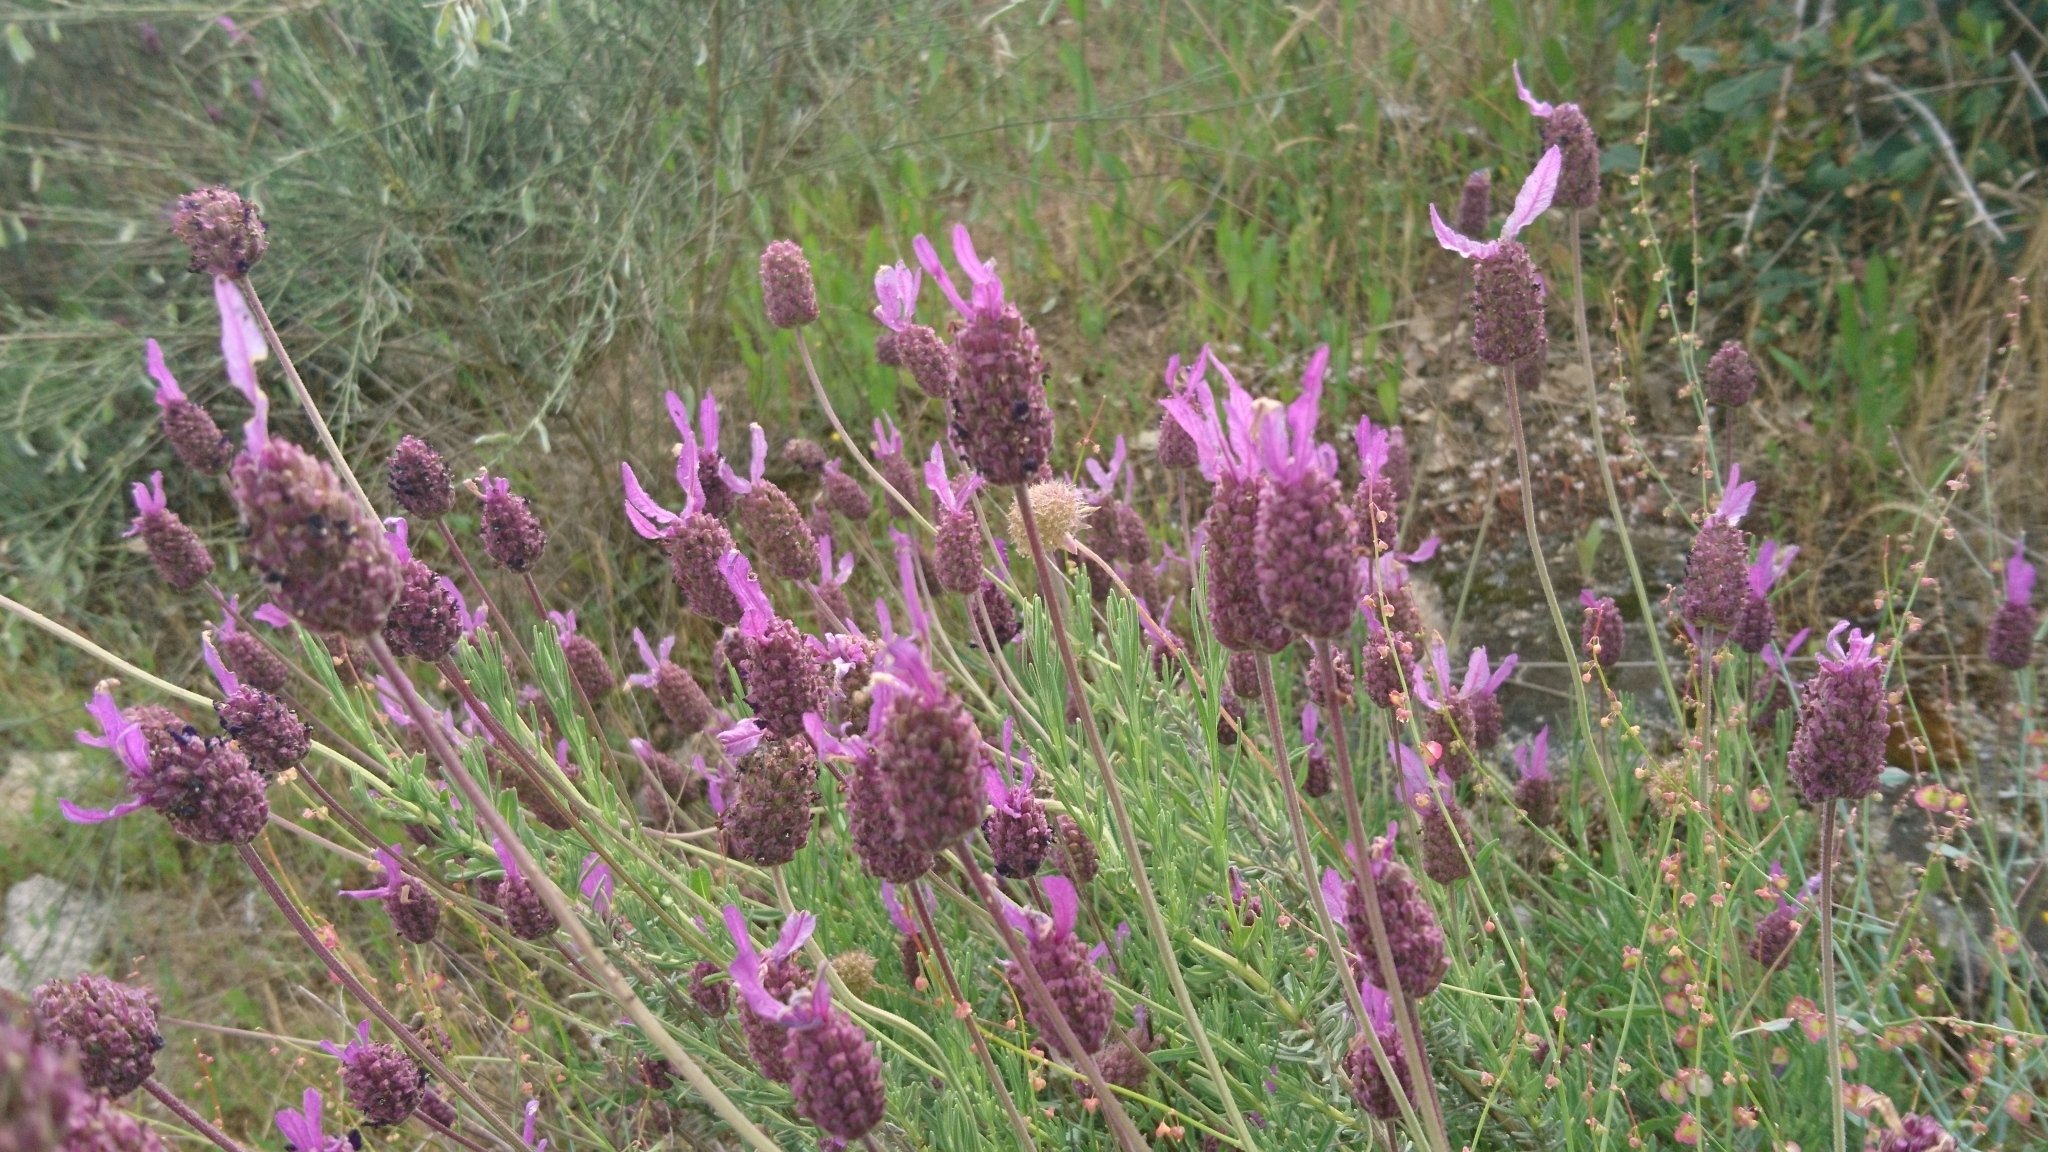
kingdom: Plantae
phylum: Tracheophyta
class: Magnoliopsida
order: Lamiales
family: Lamiaceae
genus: Lavandula
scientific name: Lavandula pedunculata
